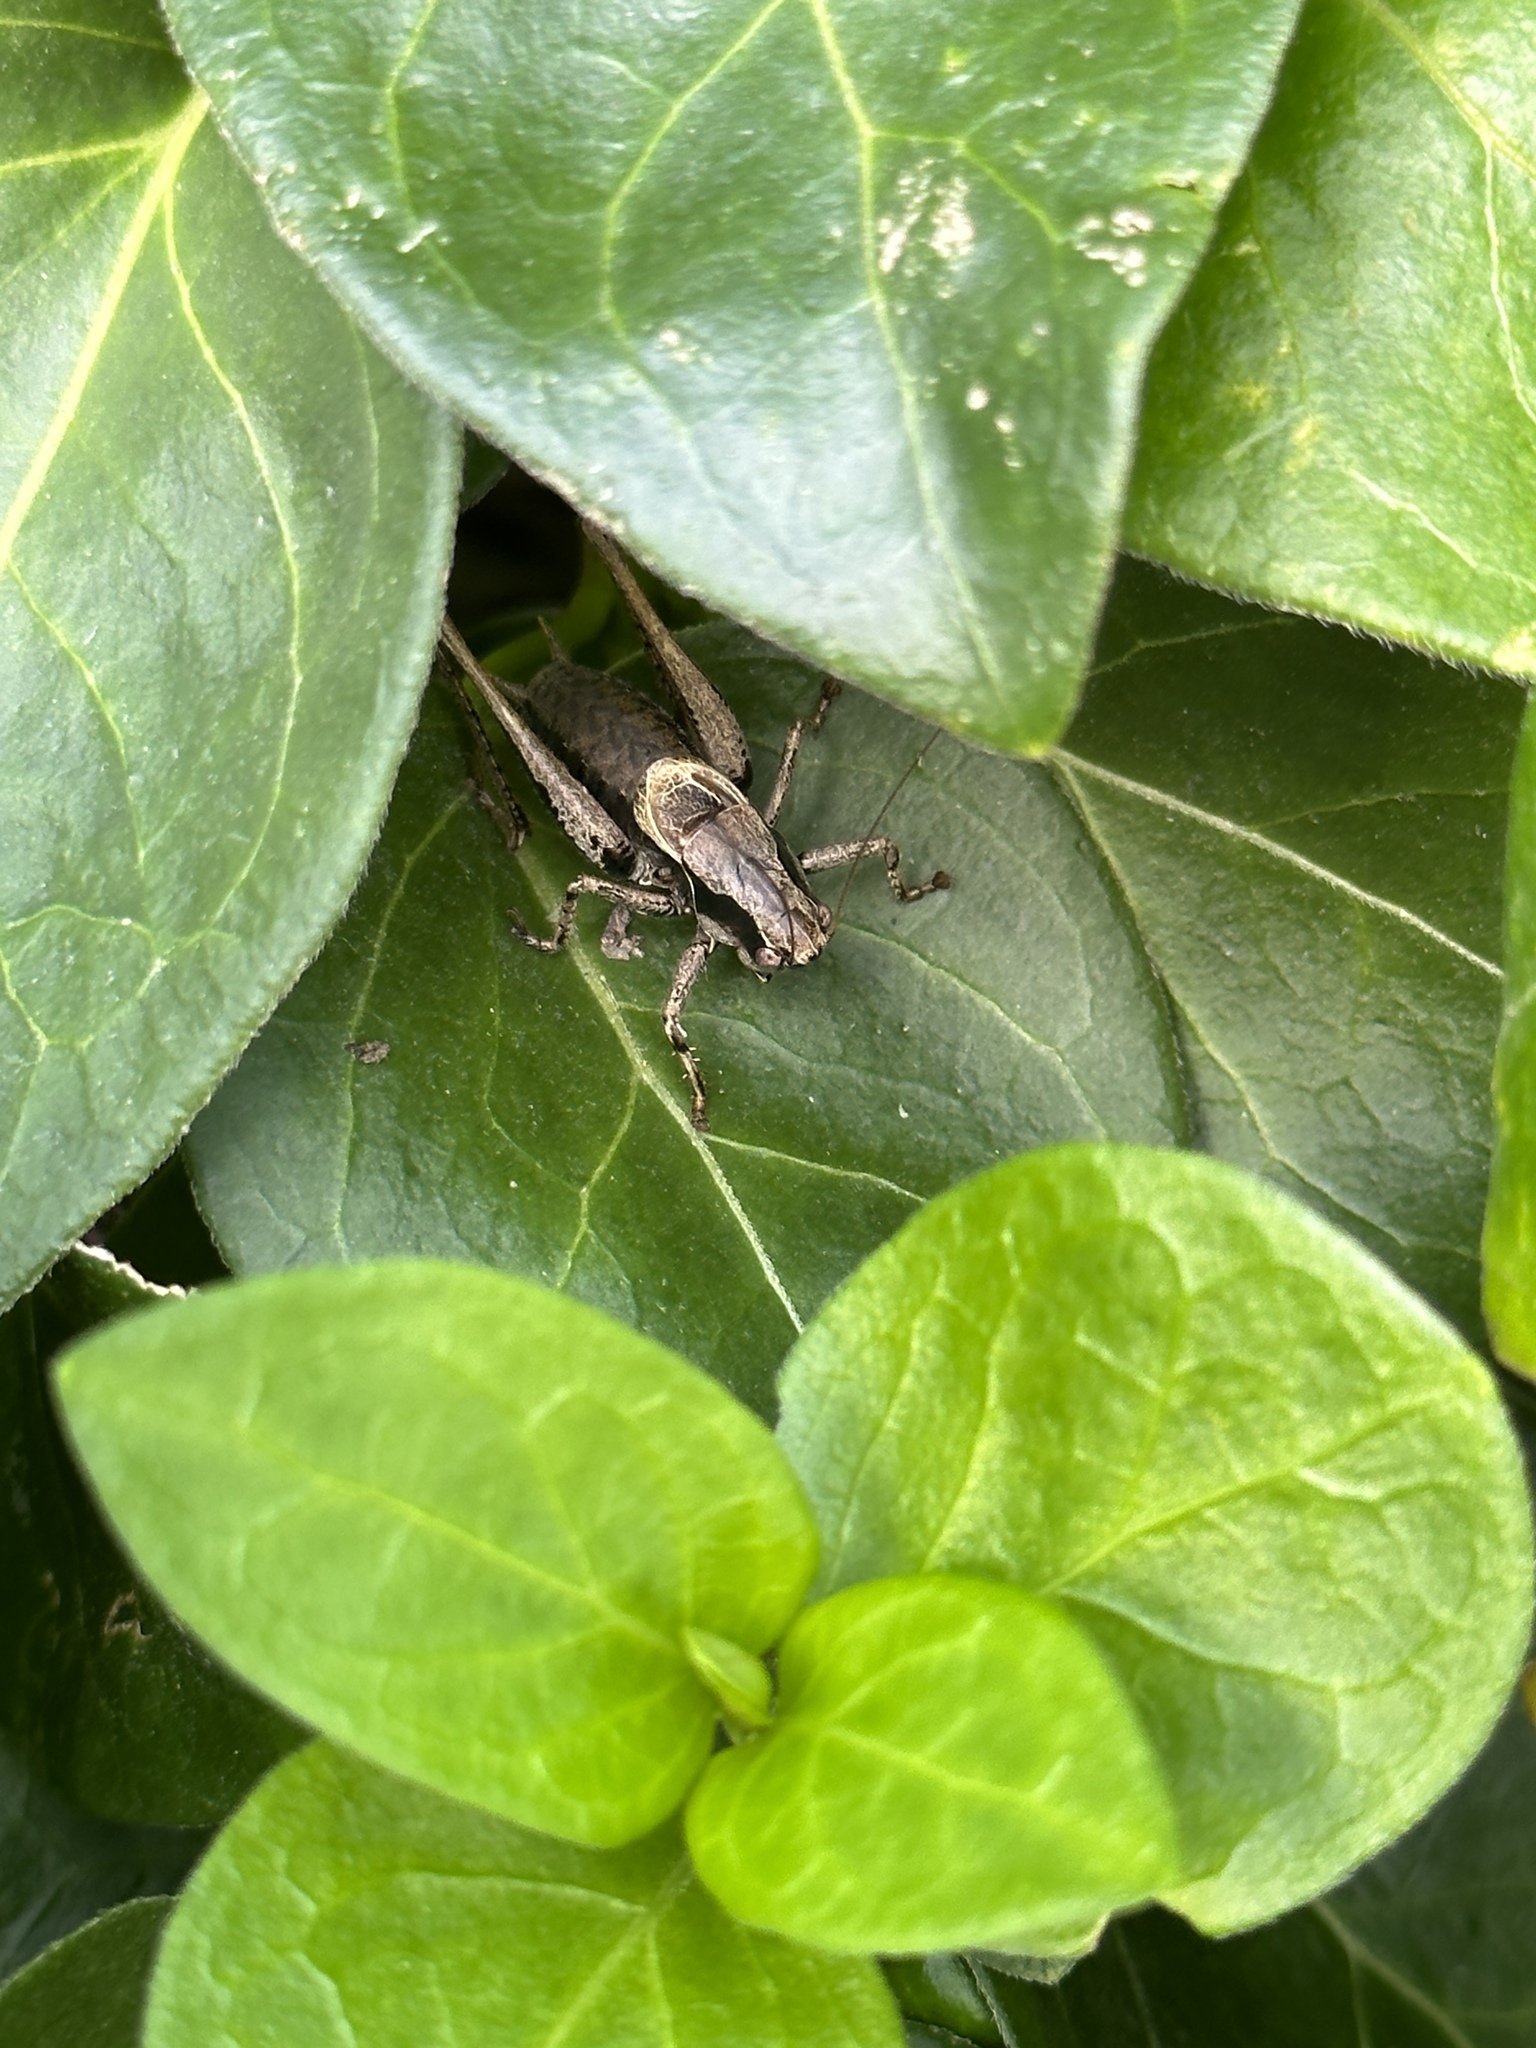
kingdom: Animalia
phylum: Arthropoda
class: Insecta
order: Orthoptera
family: Tettigoniidae
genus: Pholidoptera
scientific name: Pholidoptera griseoaptera
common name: Dark bush-cricket
